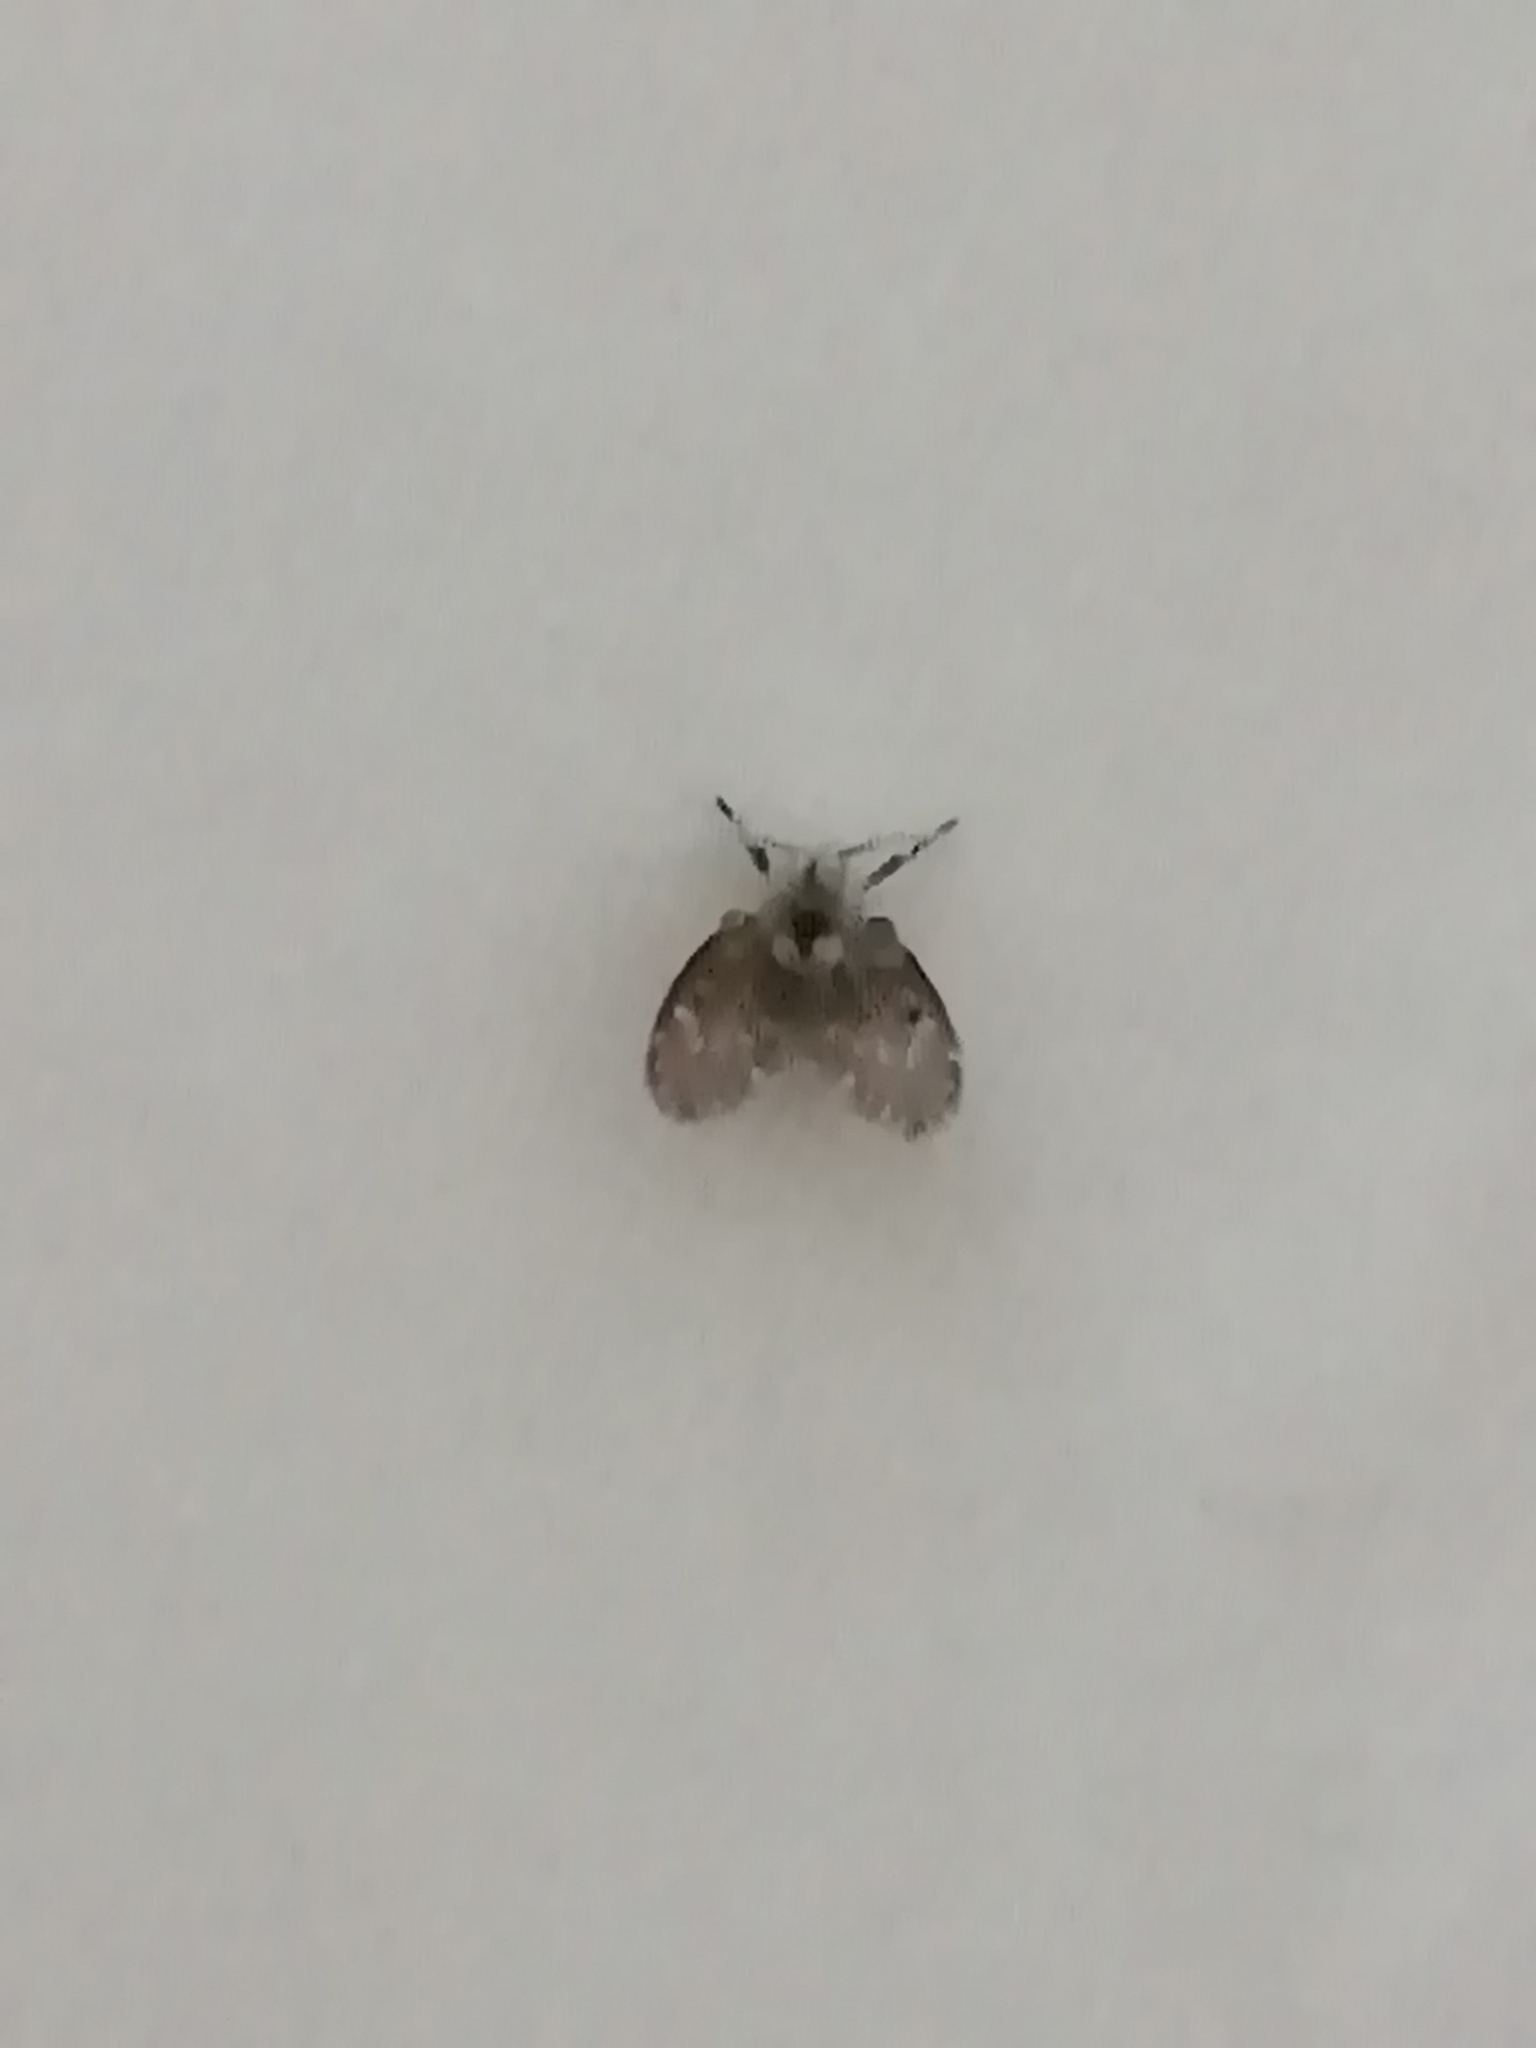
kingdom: Animalia
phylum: Arthropoda
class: Insecta
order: Diptera
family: Psychodidae
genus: Clogmia
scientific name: Clogmia albipunctatus
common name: White-spotted moth fly
